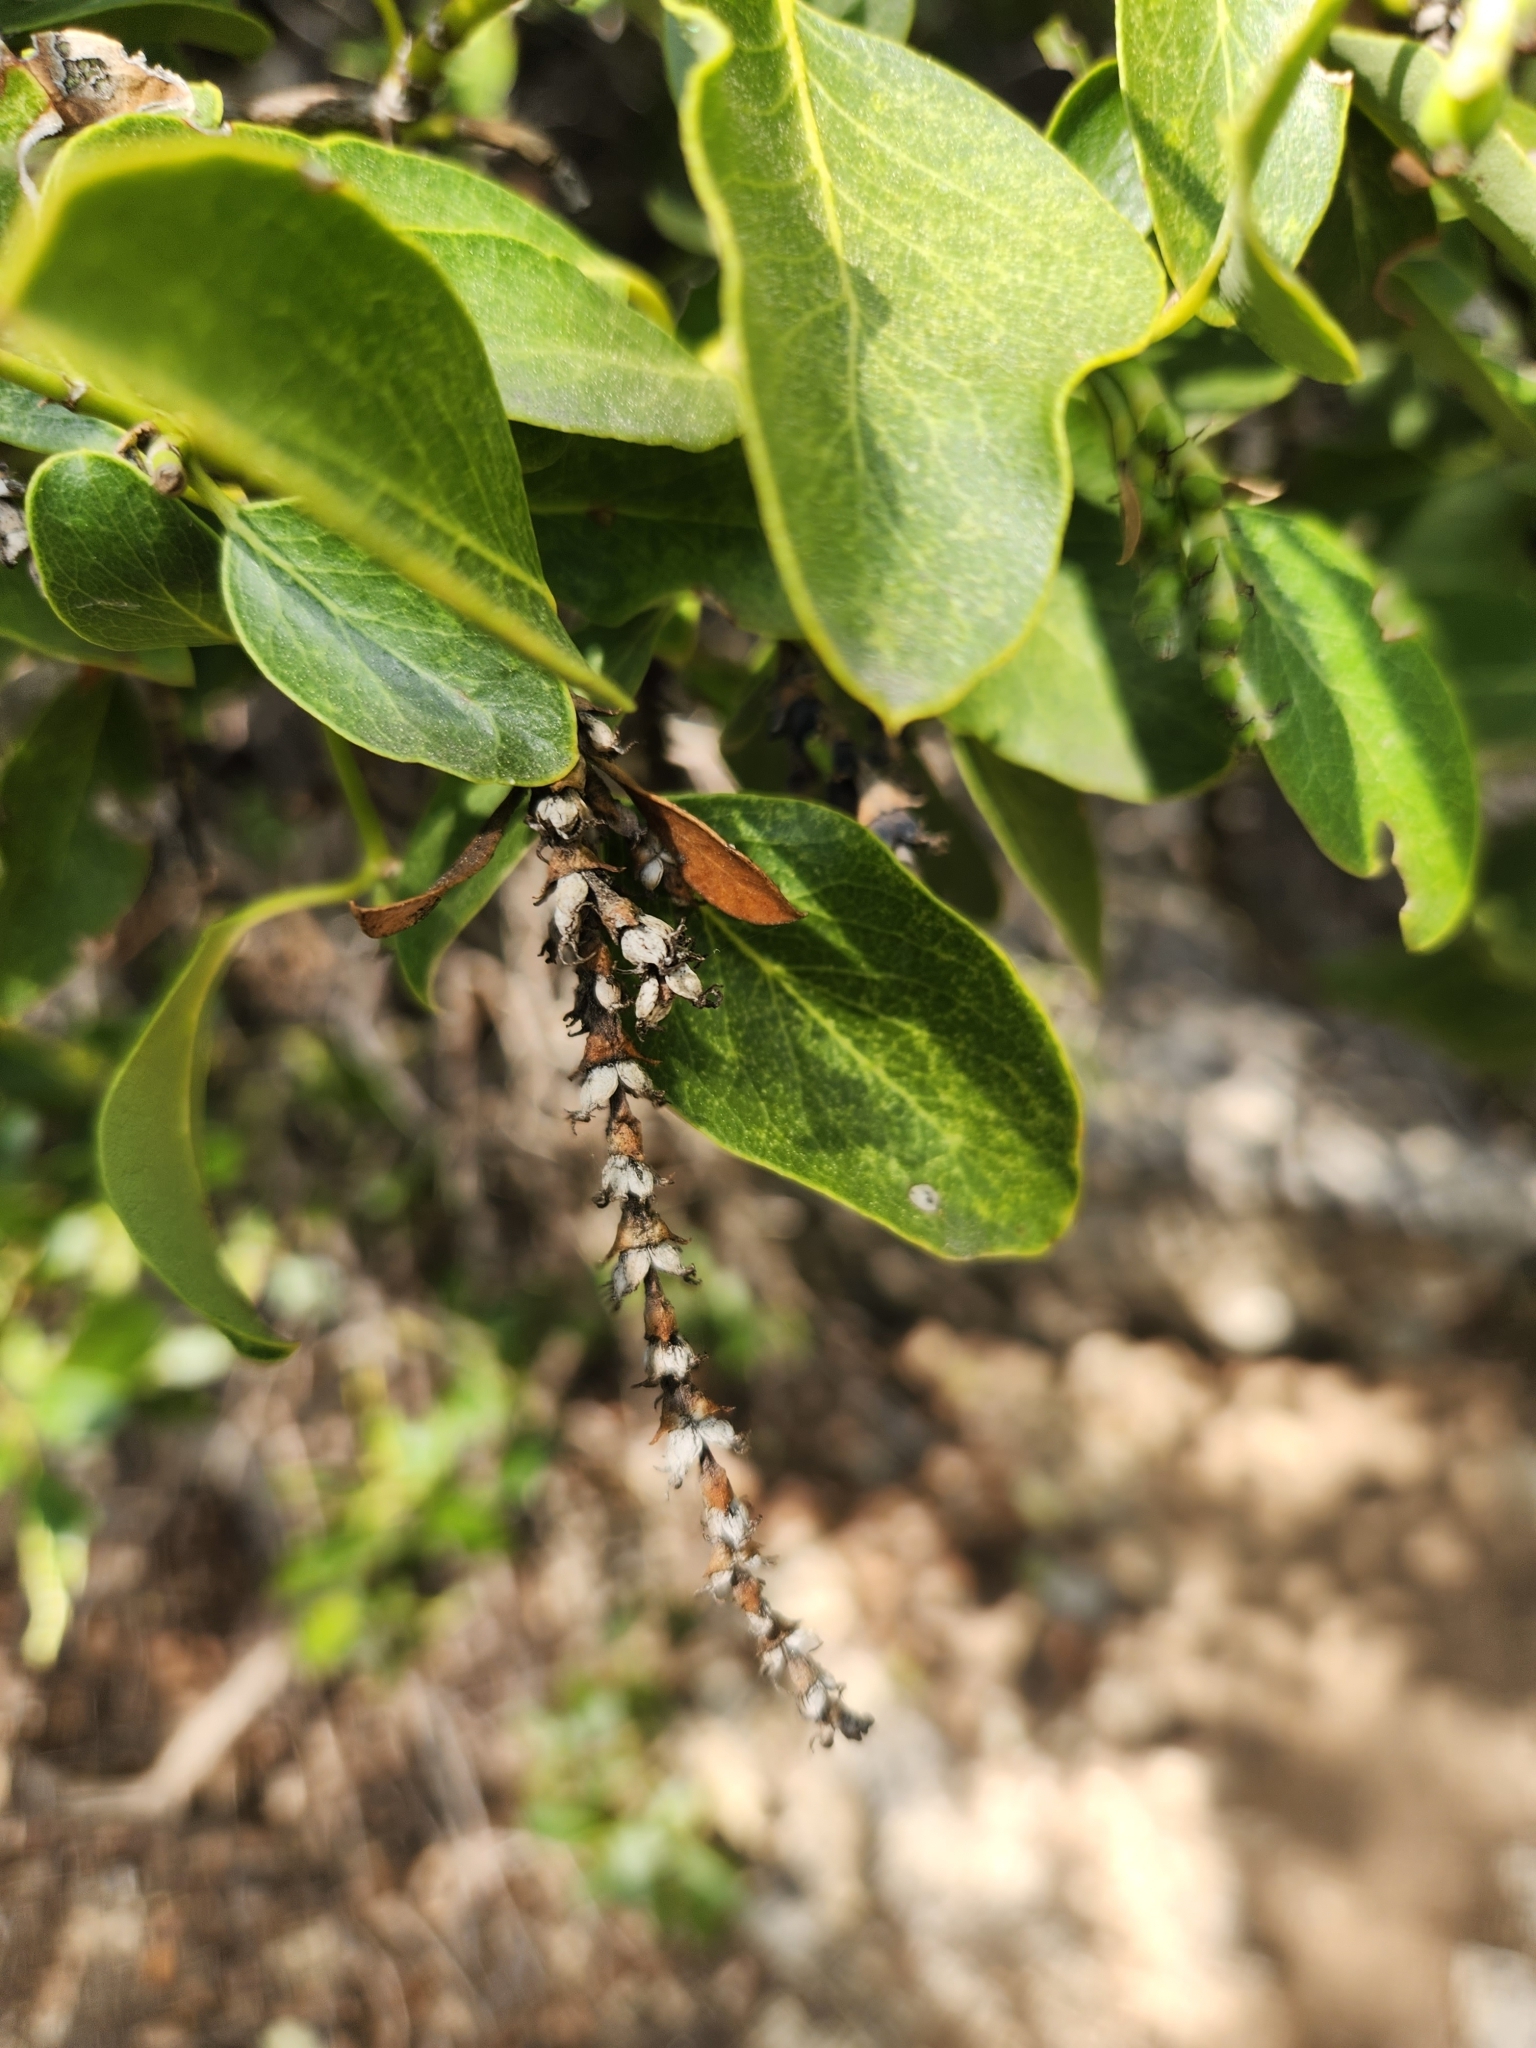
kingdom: Plantae
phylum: Tracheophyta
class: Magnoliopsida
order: Garryales
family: Garryaceae
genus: Garrya
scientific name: Garrya fremontii
